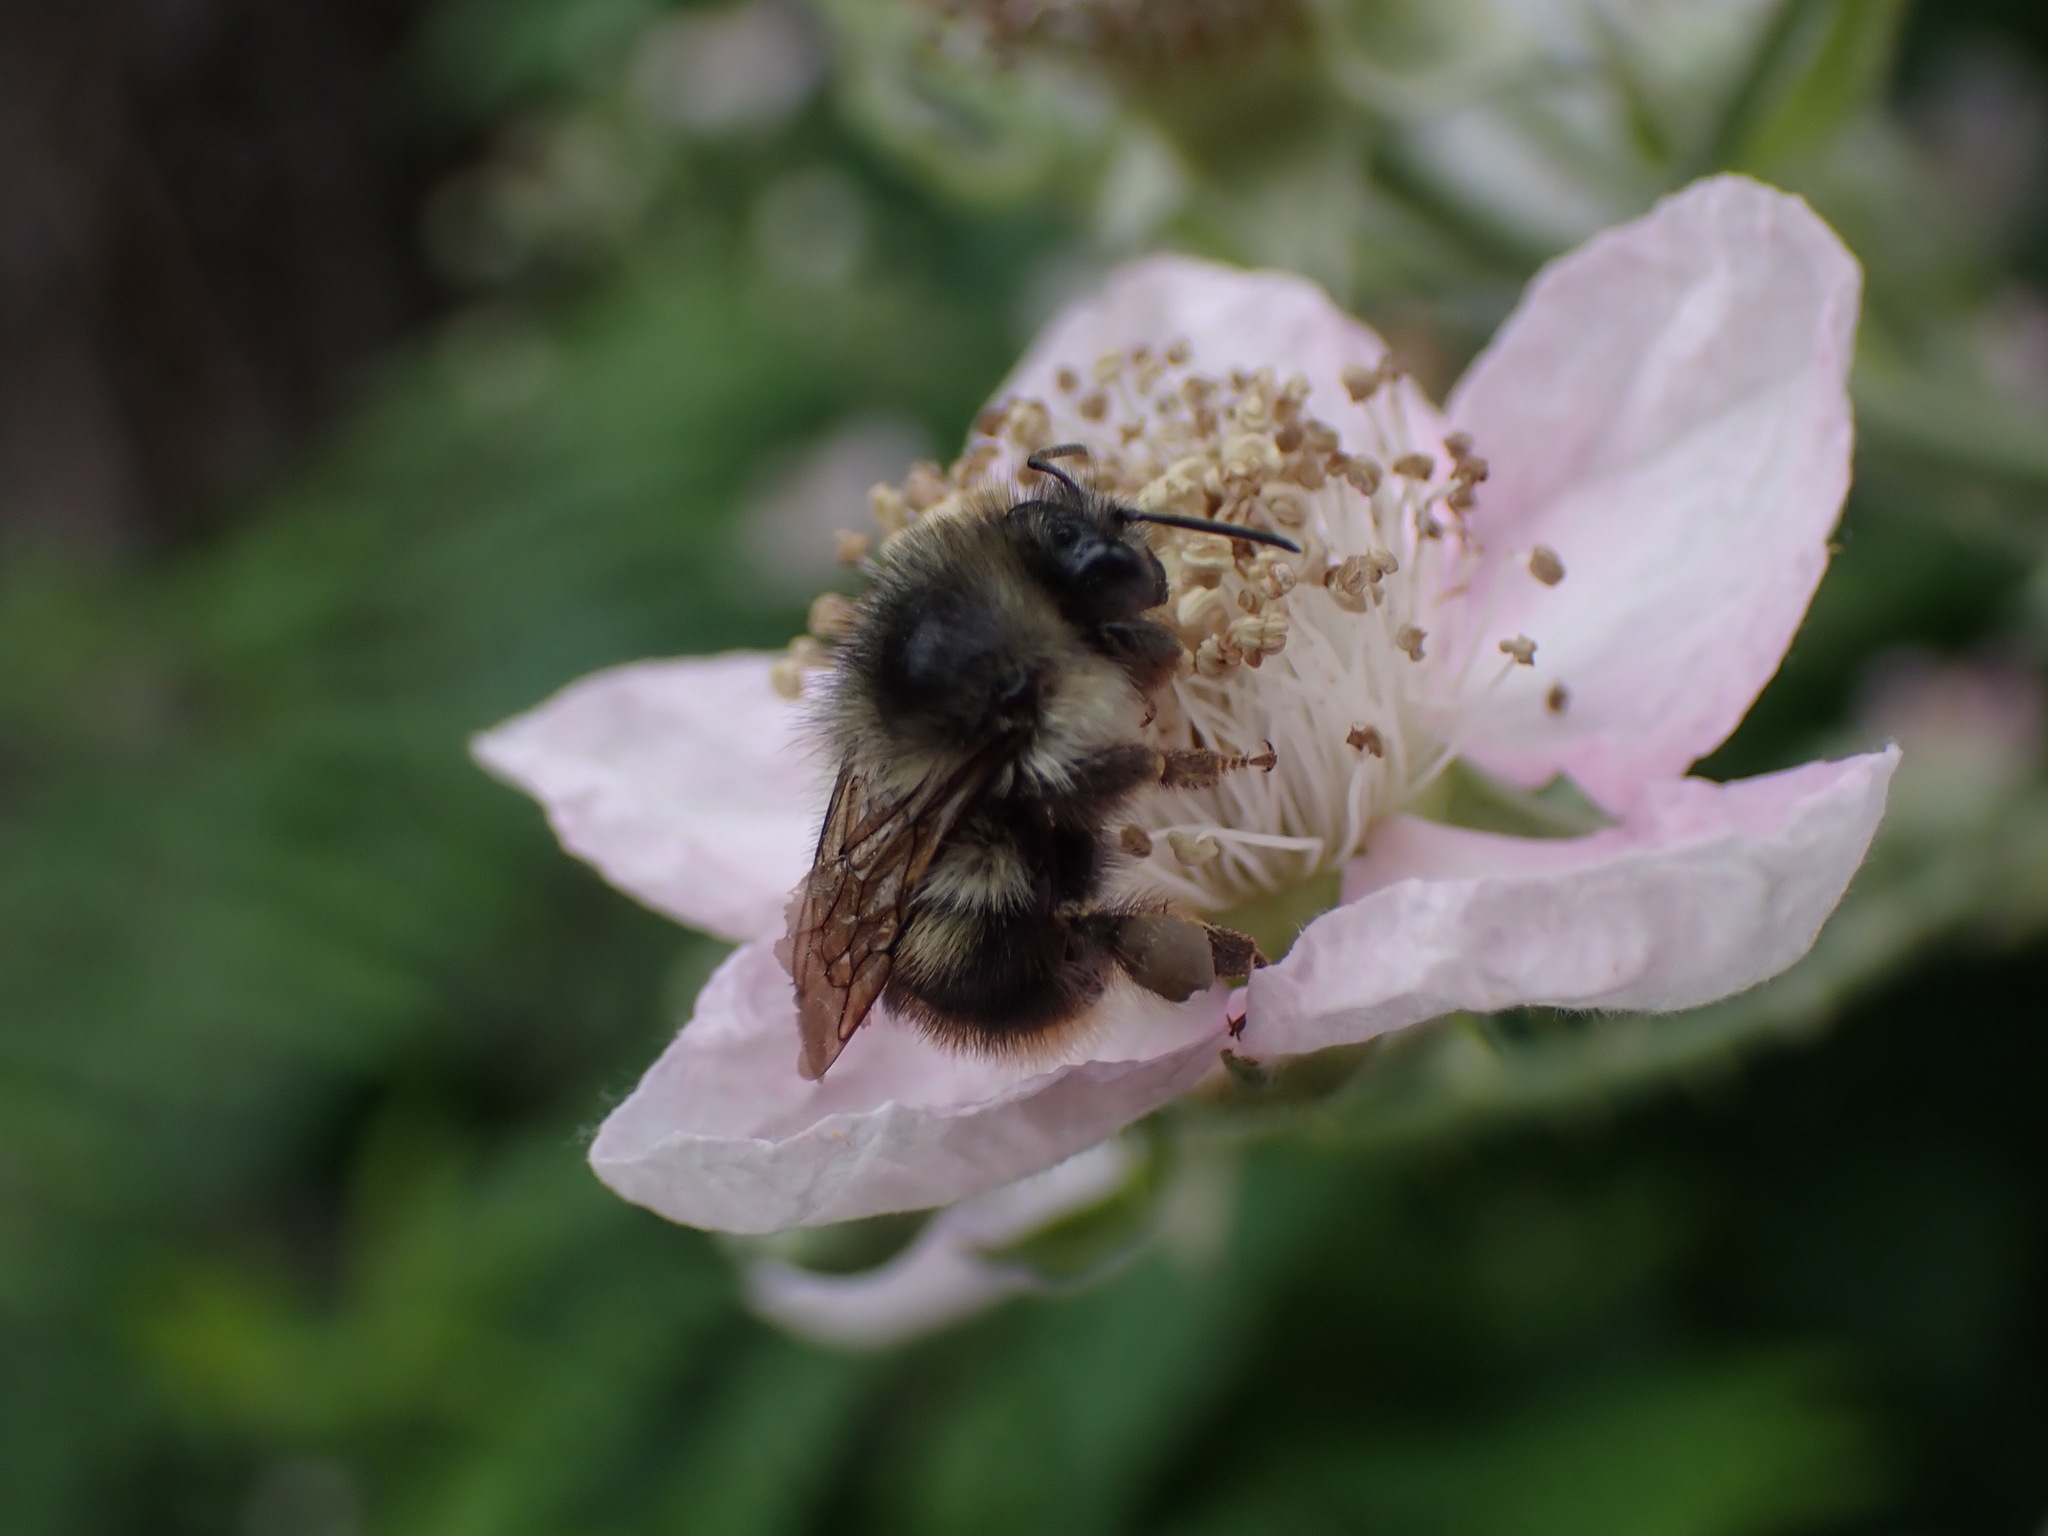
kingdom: Animalia
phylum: Arthropoda
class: Insecta
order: Hymenoptera
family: Apidae
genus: Bombus
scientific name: Bombus mixtus
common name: Fuzzy-horned bumble bee
